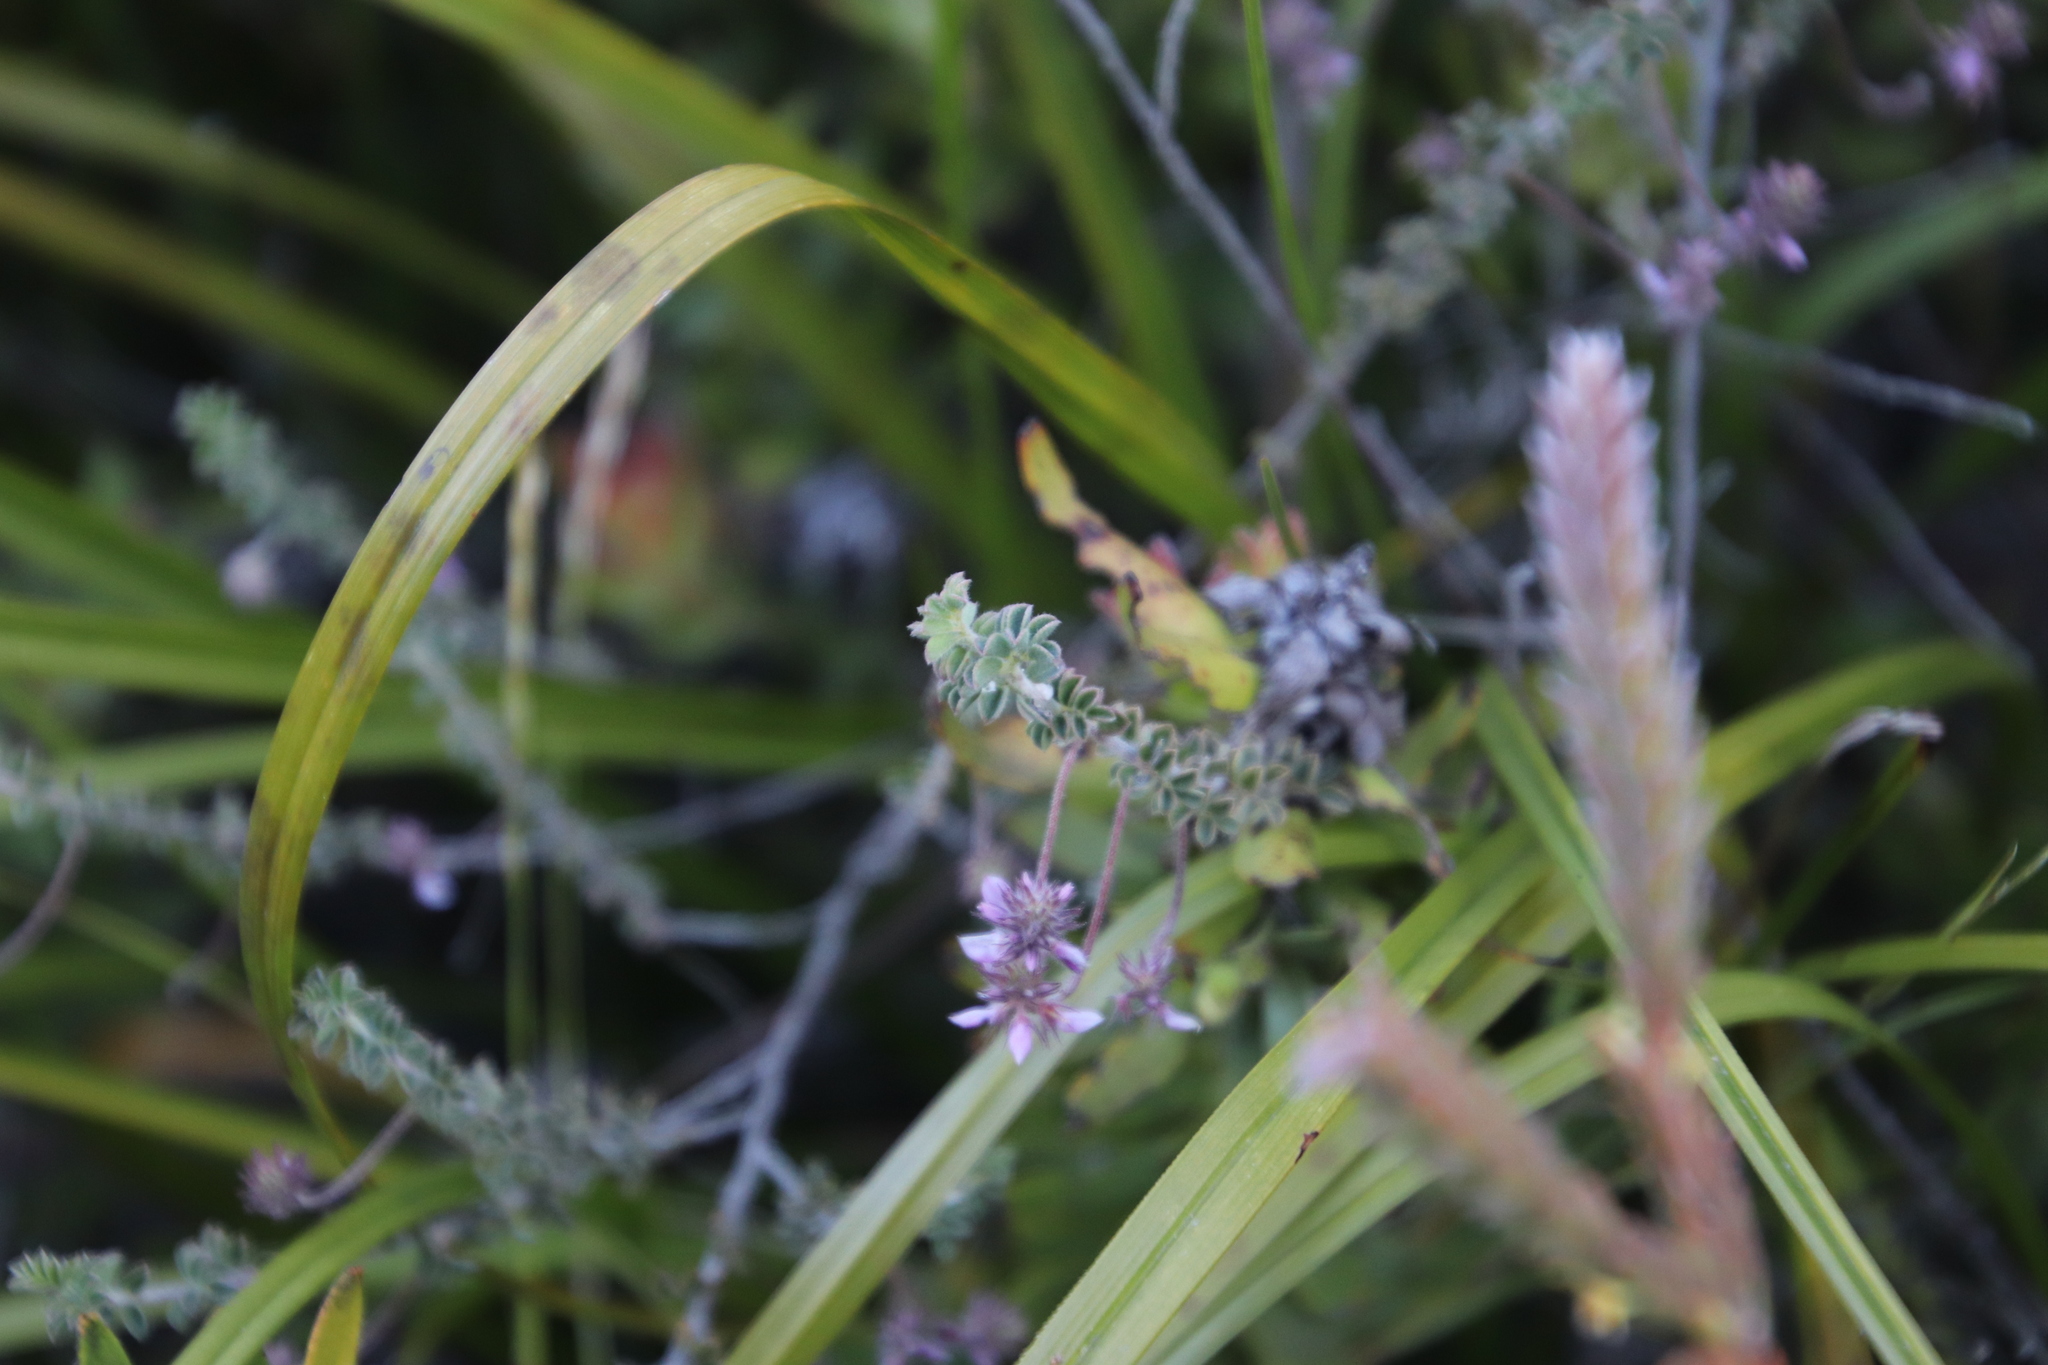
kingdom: Plantae
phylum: Tracheophyta
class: Magnoliopsida
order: Fabales
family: Fabaceae
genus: Indigofera
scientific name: Indigofera alopecuroides
